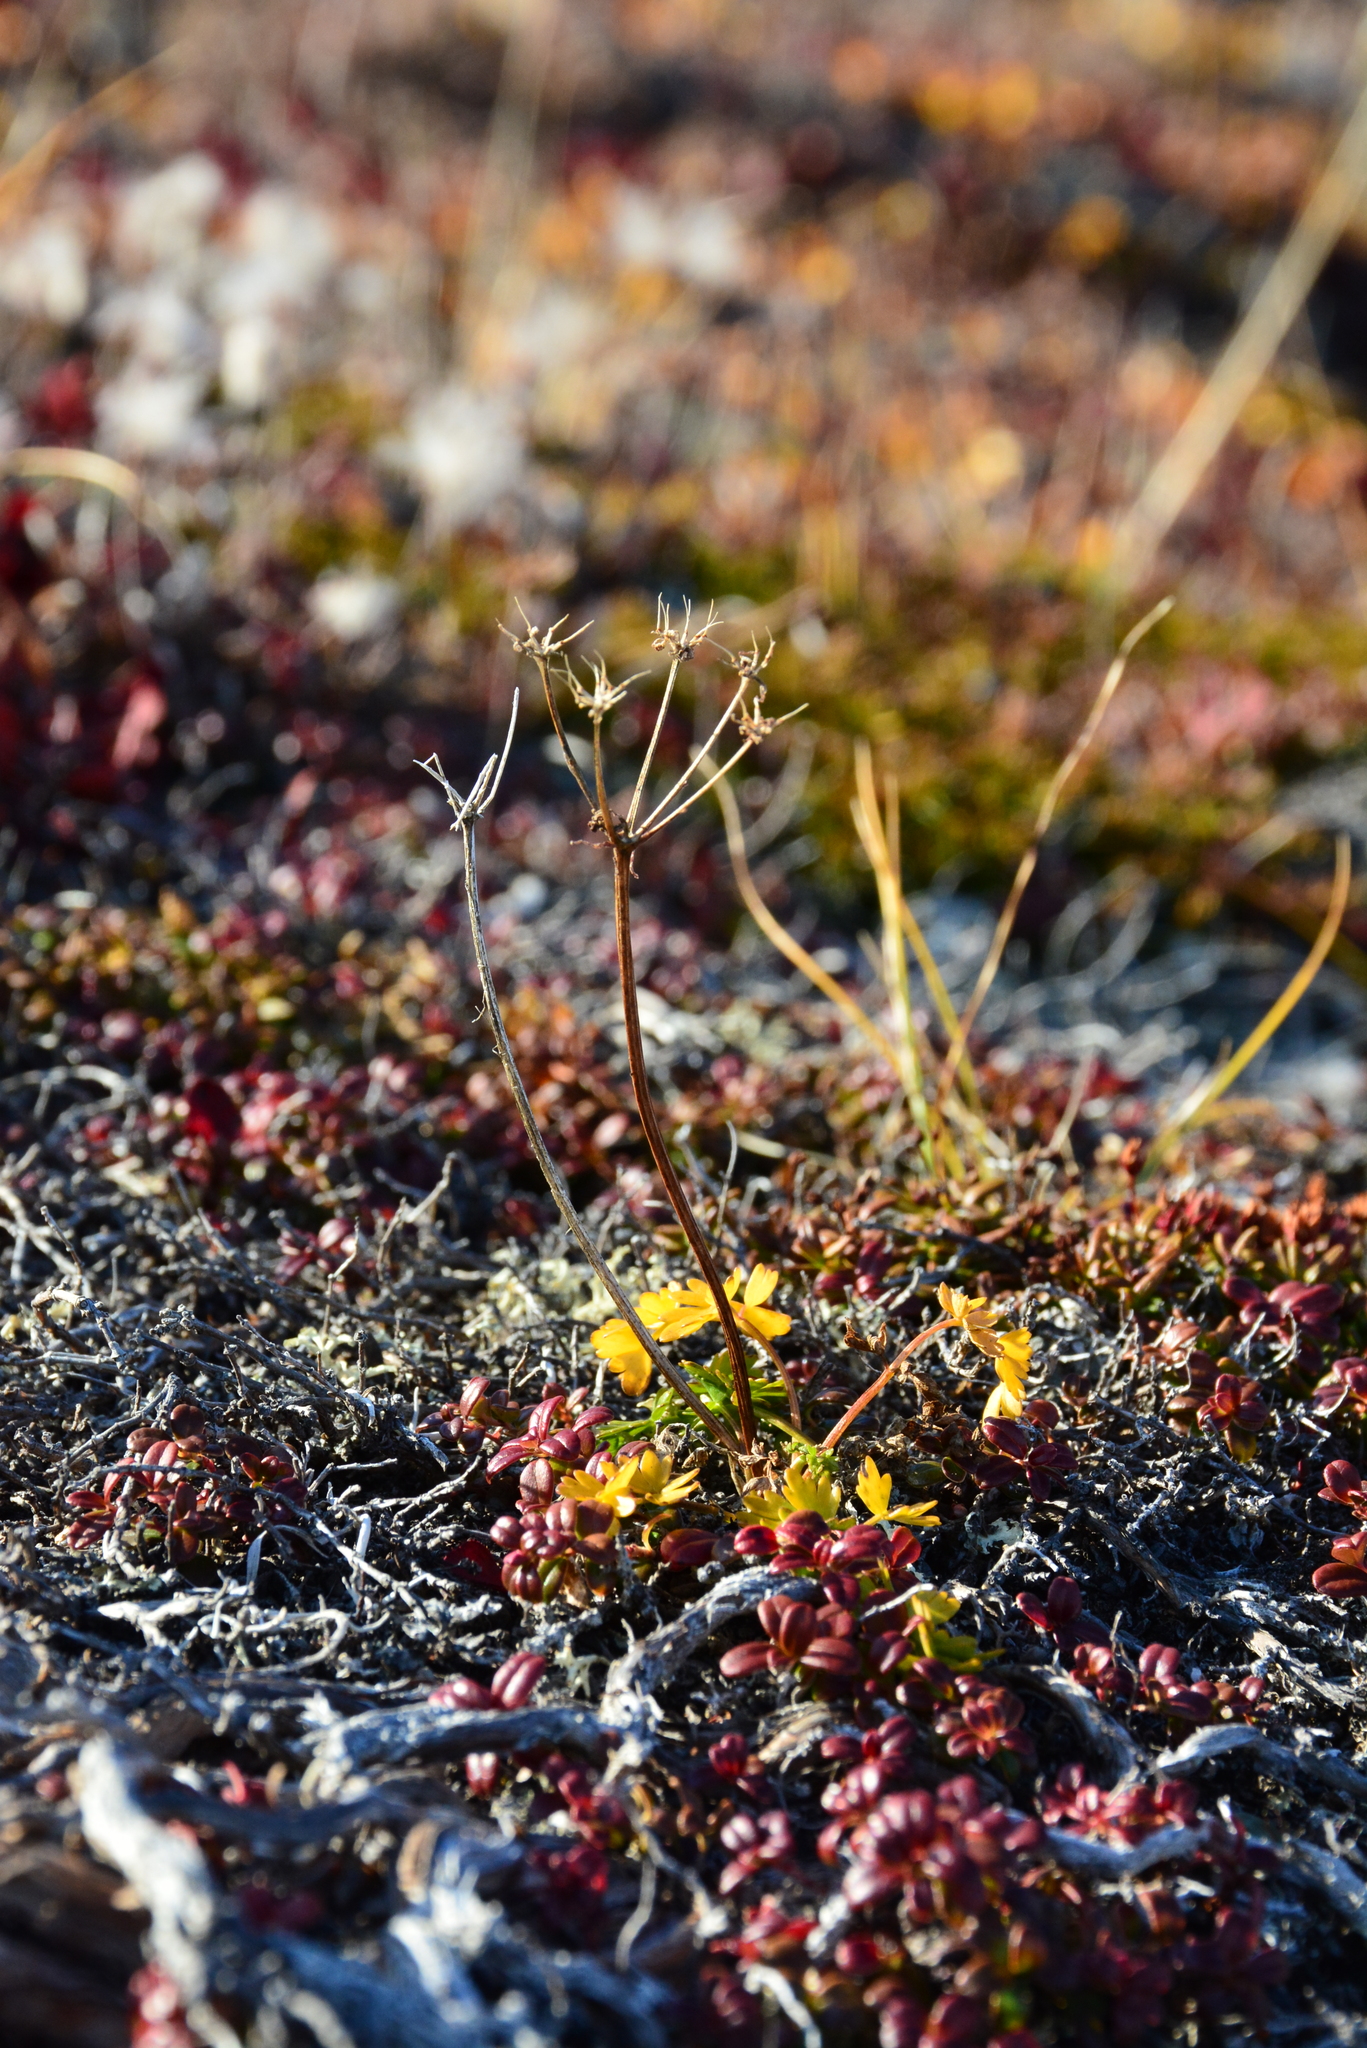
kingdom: Plantae
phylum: Tracheophyta
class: Magnoliopsida
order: Apiales
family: Apiaceae
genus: Orumbella
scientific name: Orumbella macounii
